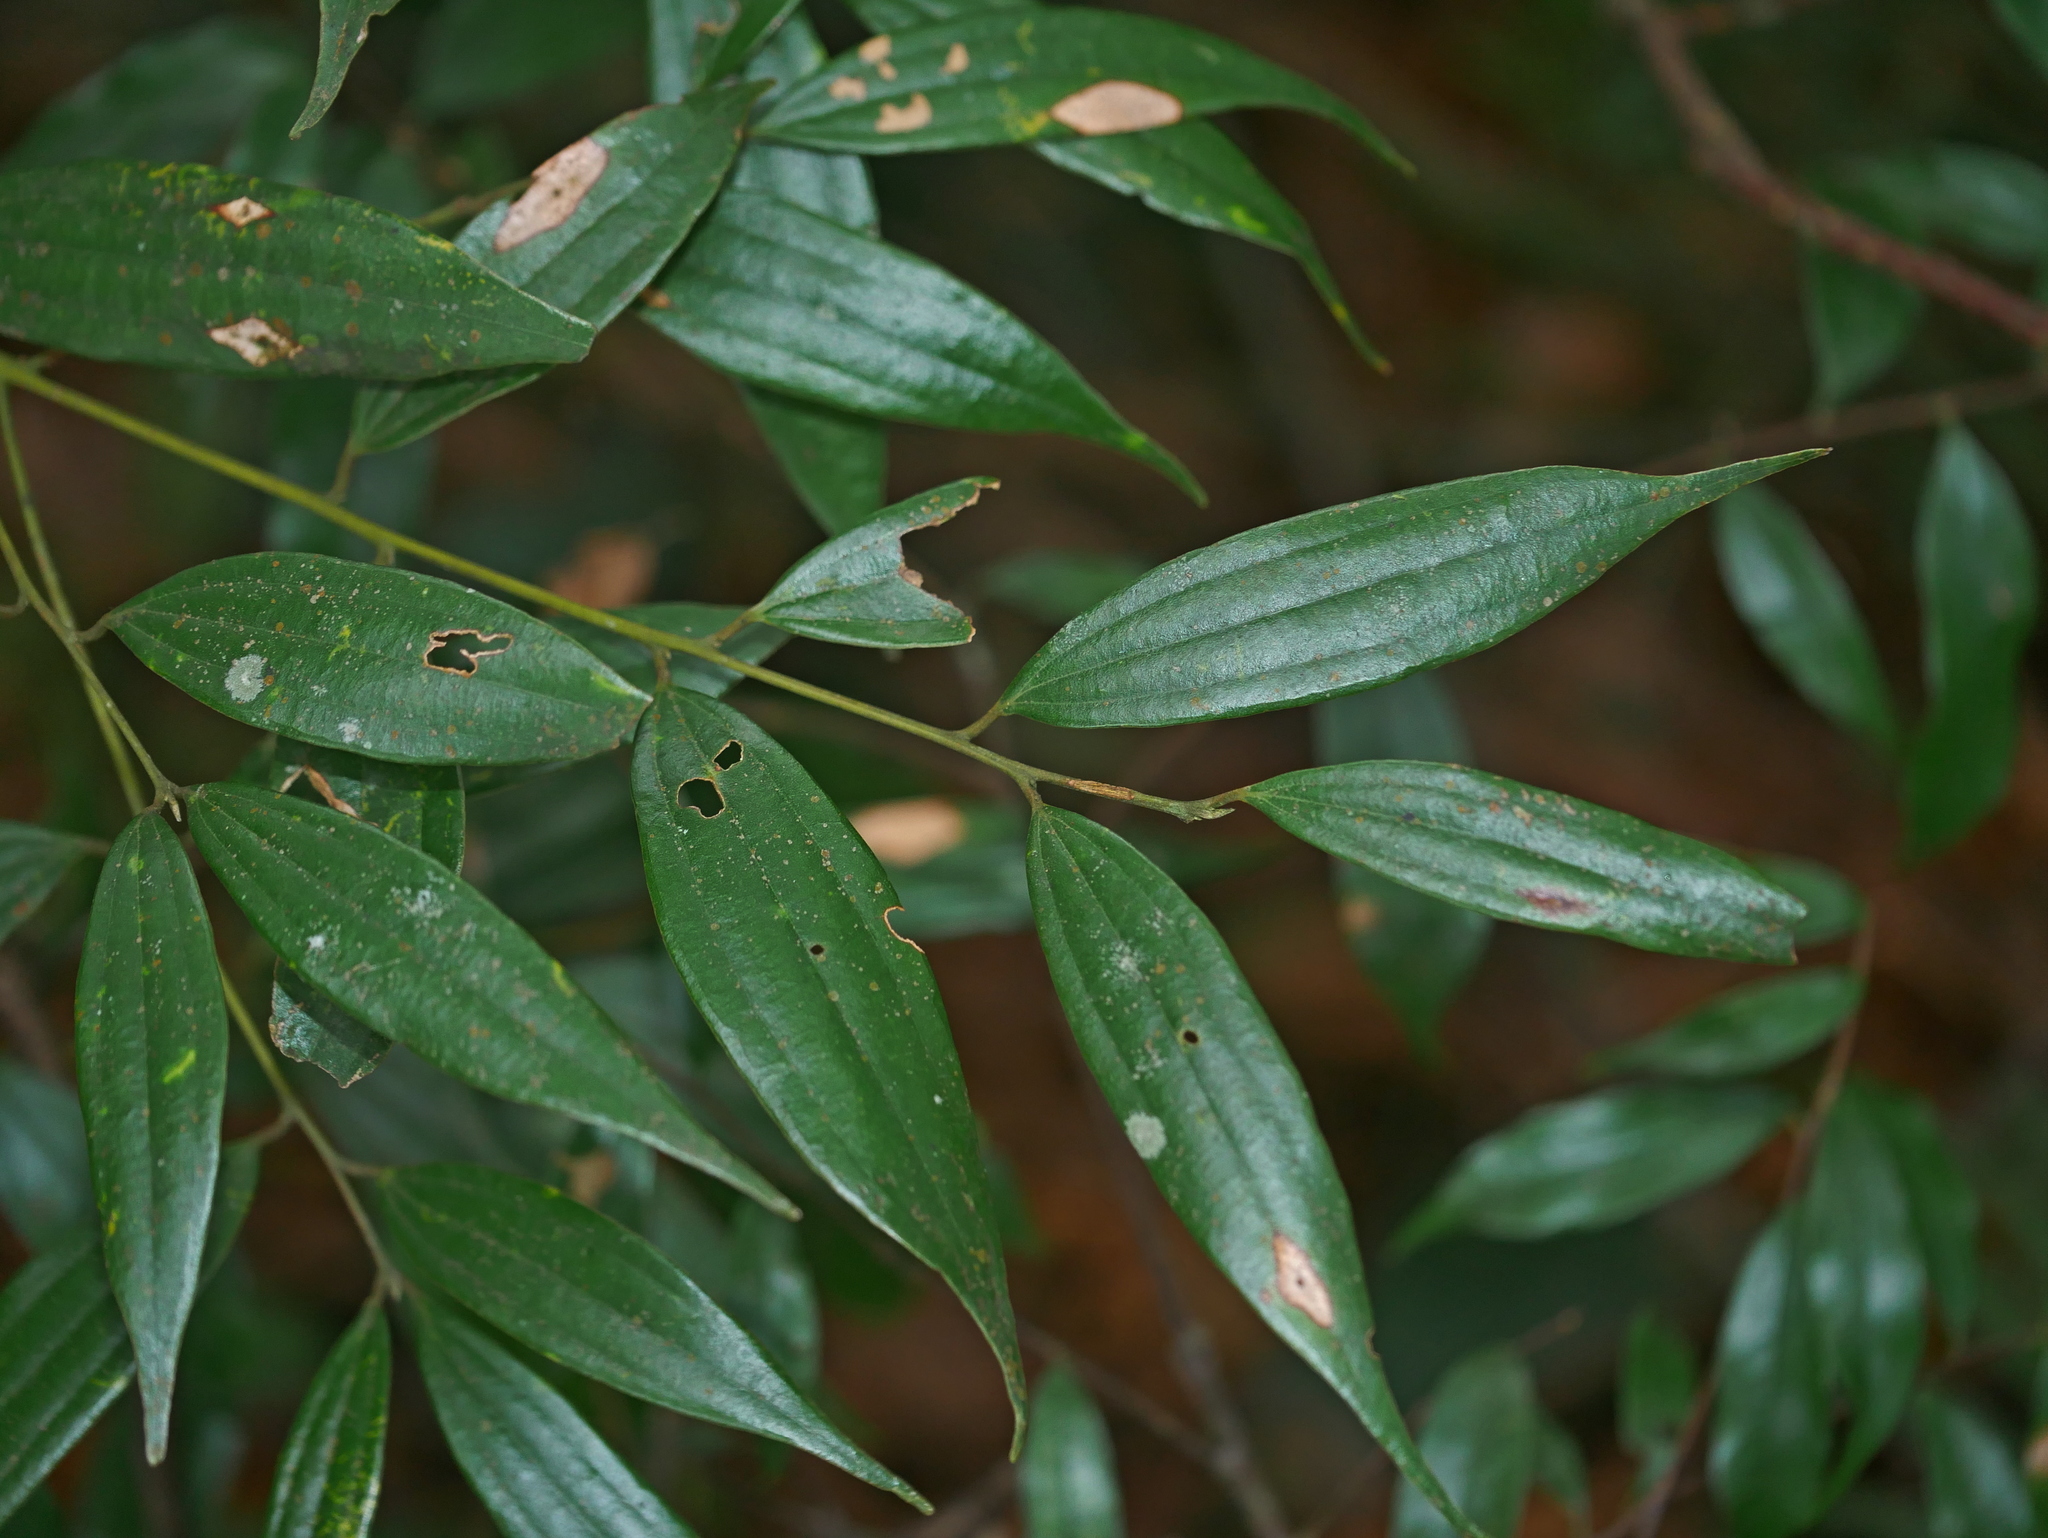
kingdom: Plantae
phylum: Tracheophyta
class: Magnoliopsida
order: Laurales
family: Lauraceae
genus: Cinnamomum
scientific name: Cinnamomum subavenium
